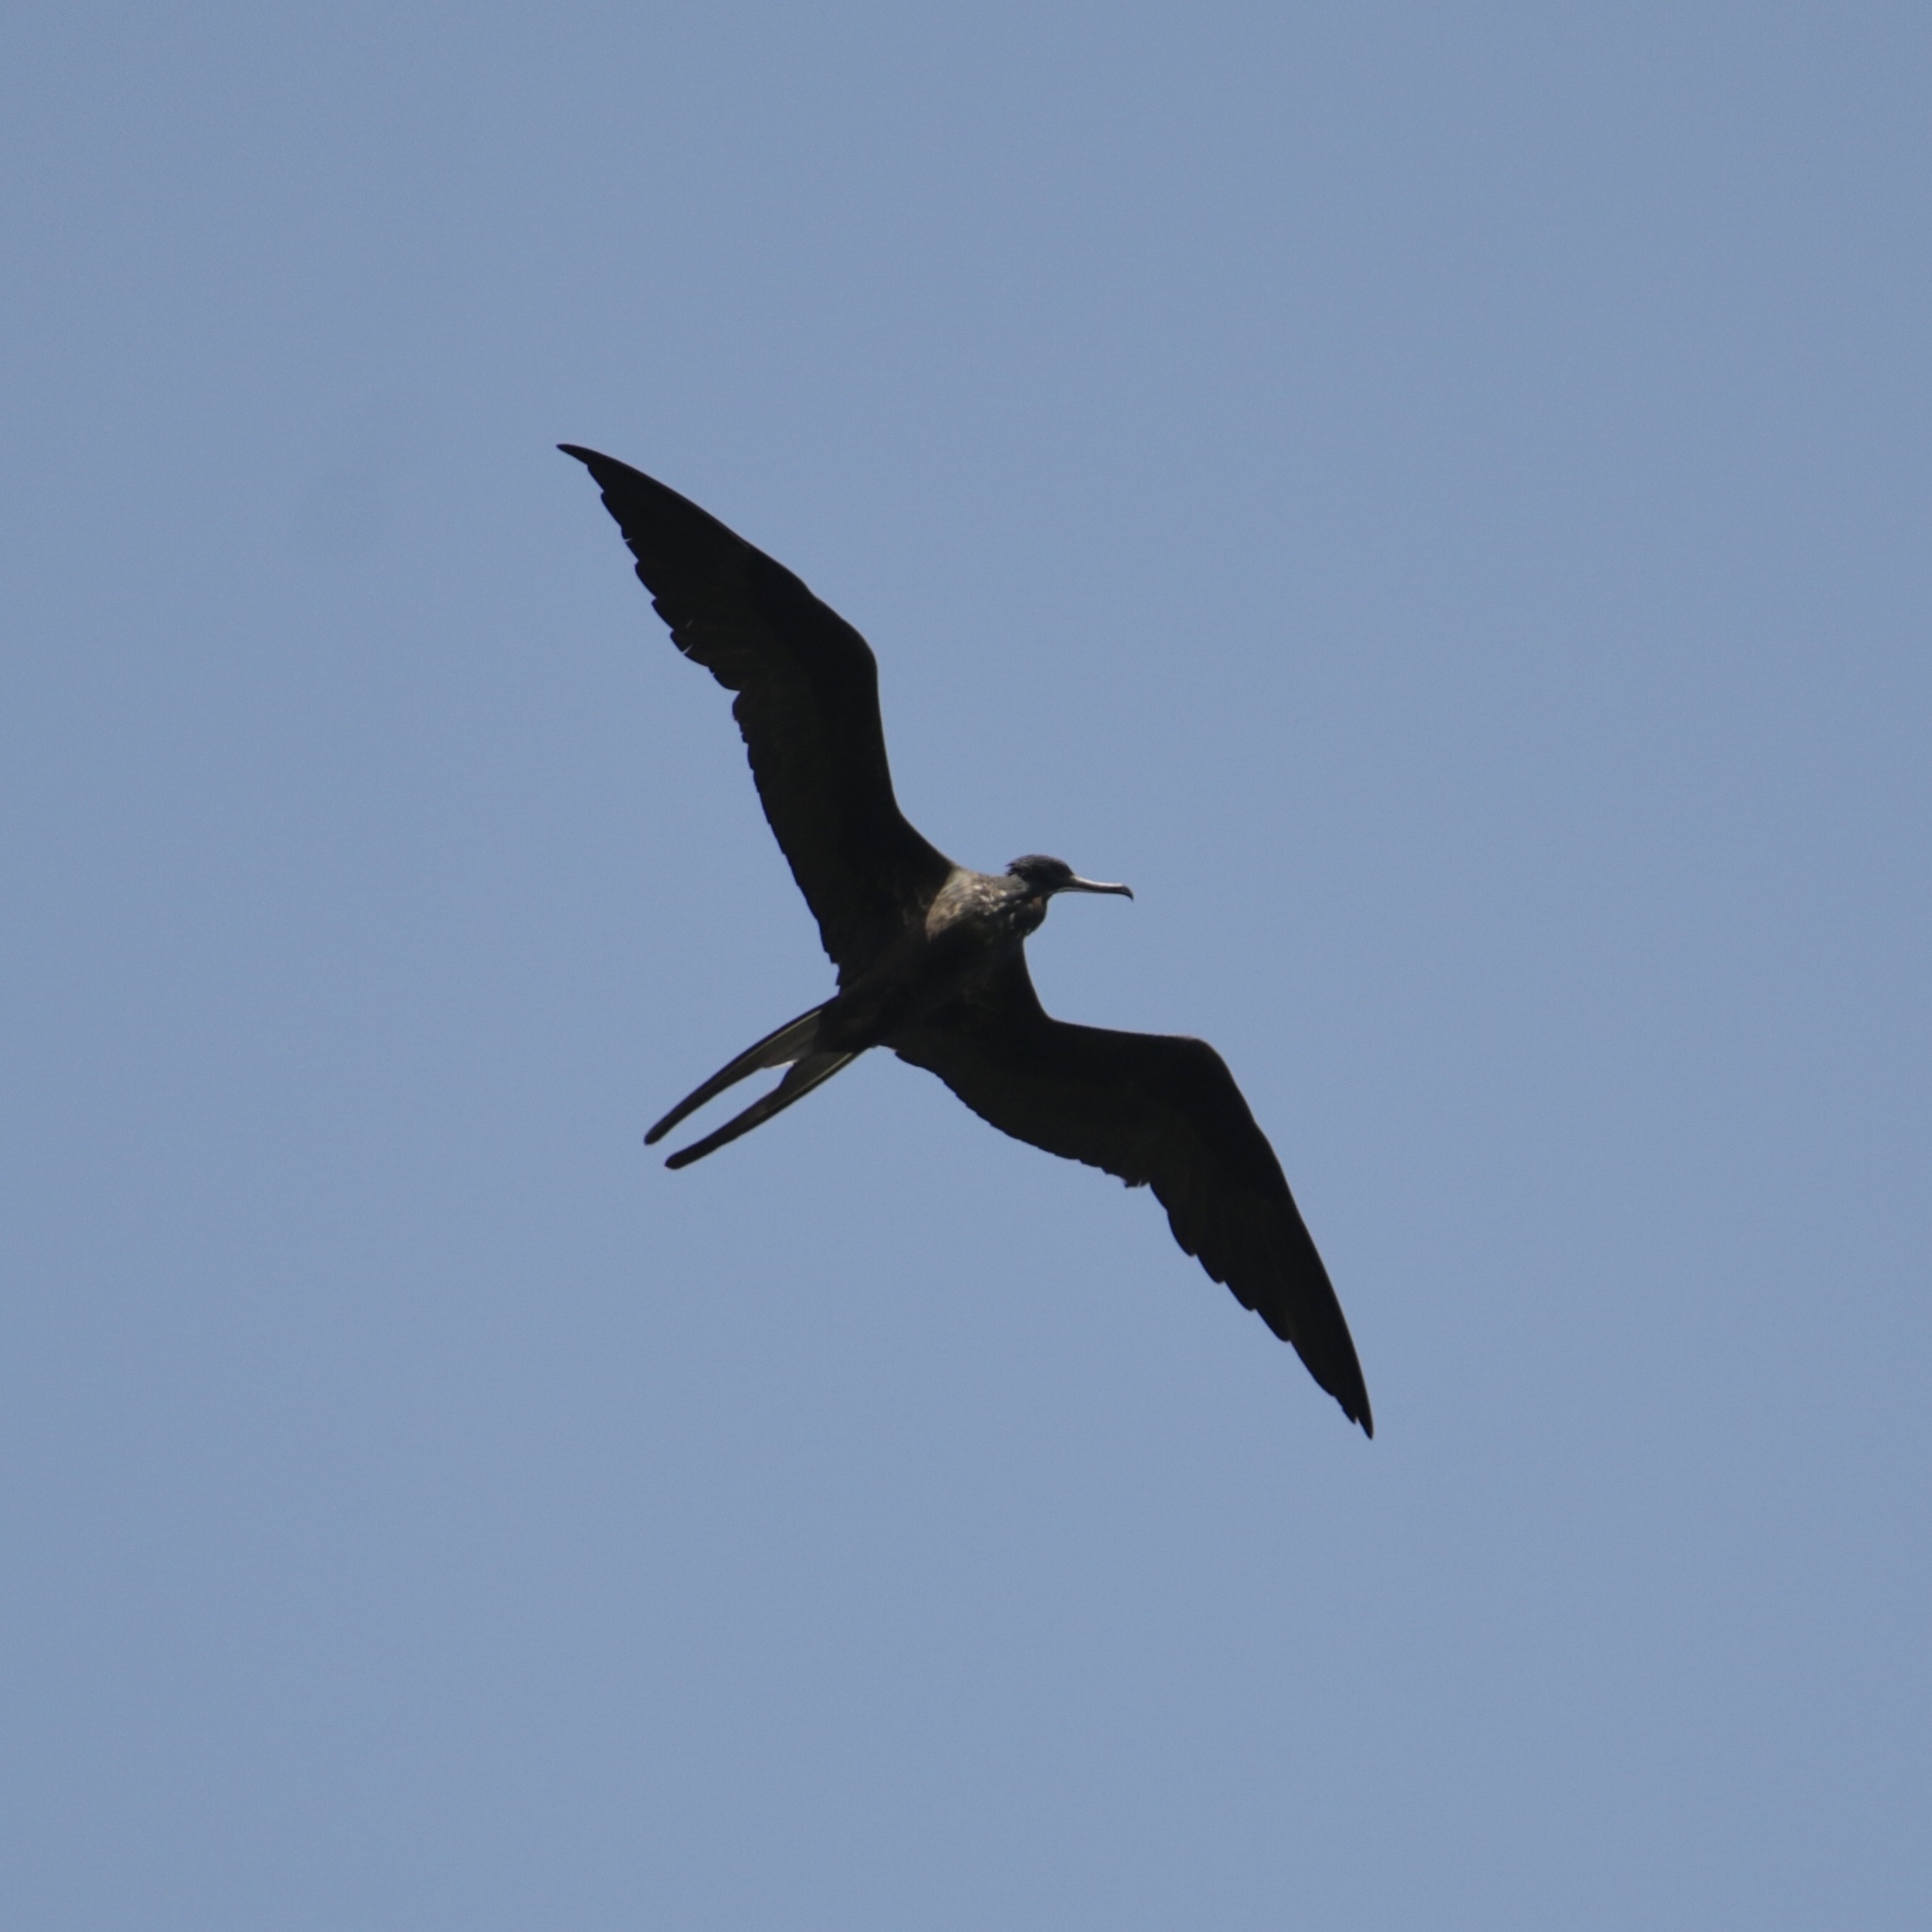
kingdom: Animalia
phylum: Chordata
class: Aves
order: Suliformes
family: Fregatidae
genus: Fregata
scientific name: Fregata magnificens
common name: Magnificent frigatebird
